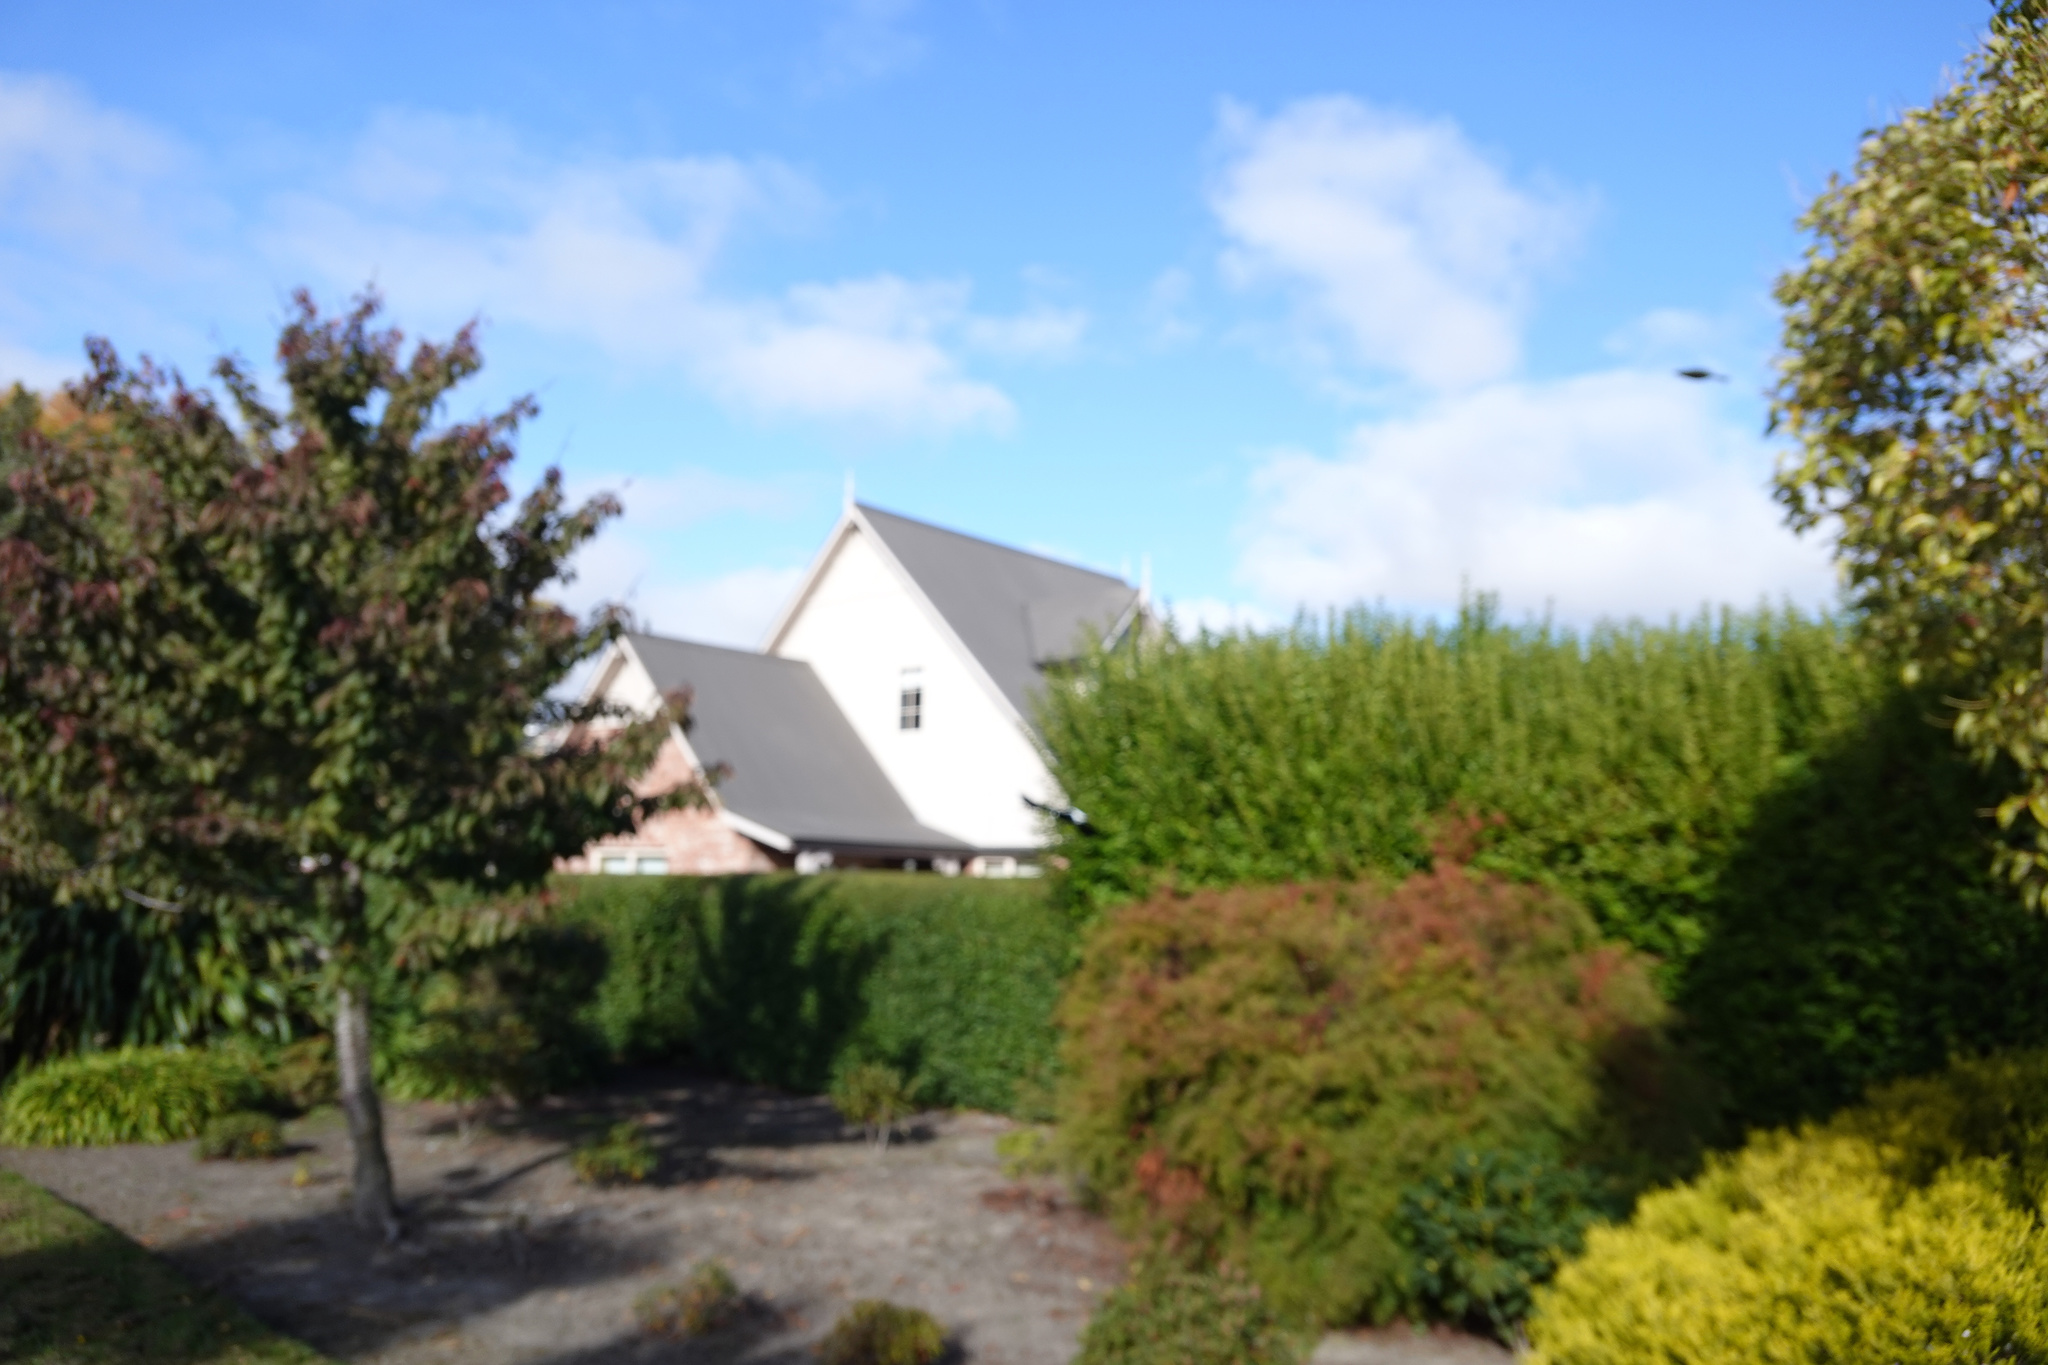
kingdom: Animalia
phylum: Chordata
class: Aves
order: Passeriformes
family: Meliphagidae
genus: Anthornis
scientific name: Anthornis melanura
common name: New zealand bellbird
